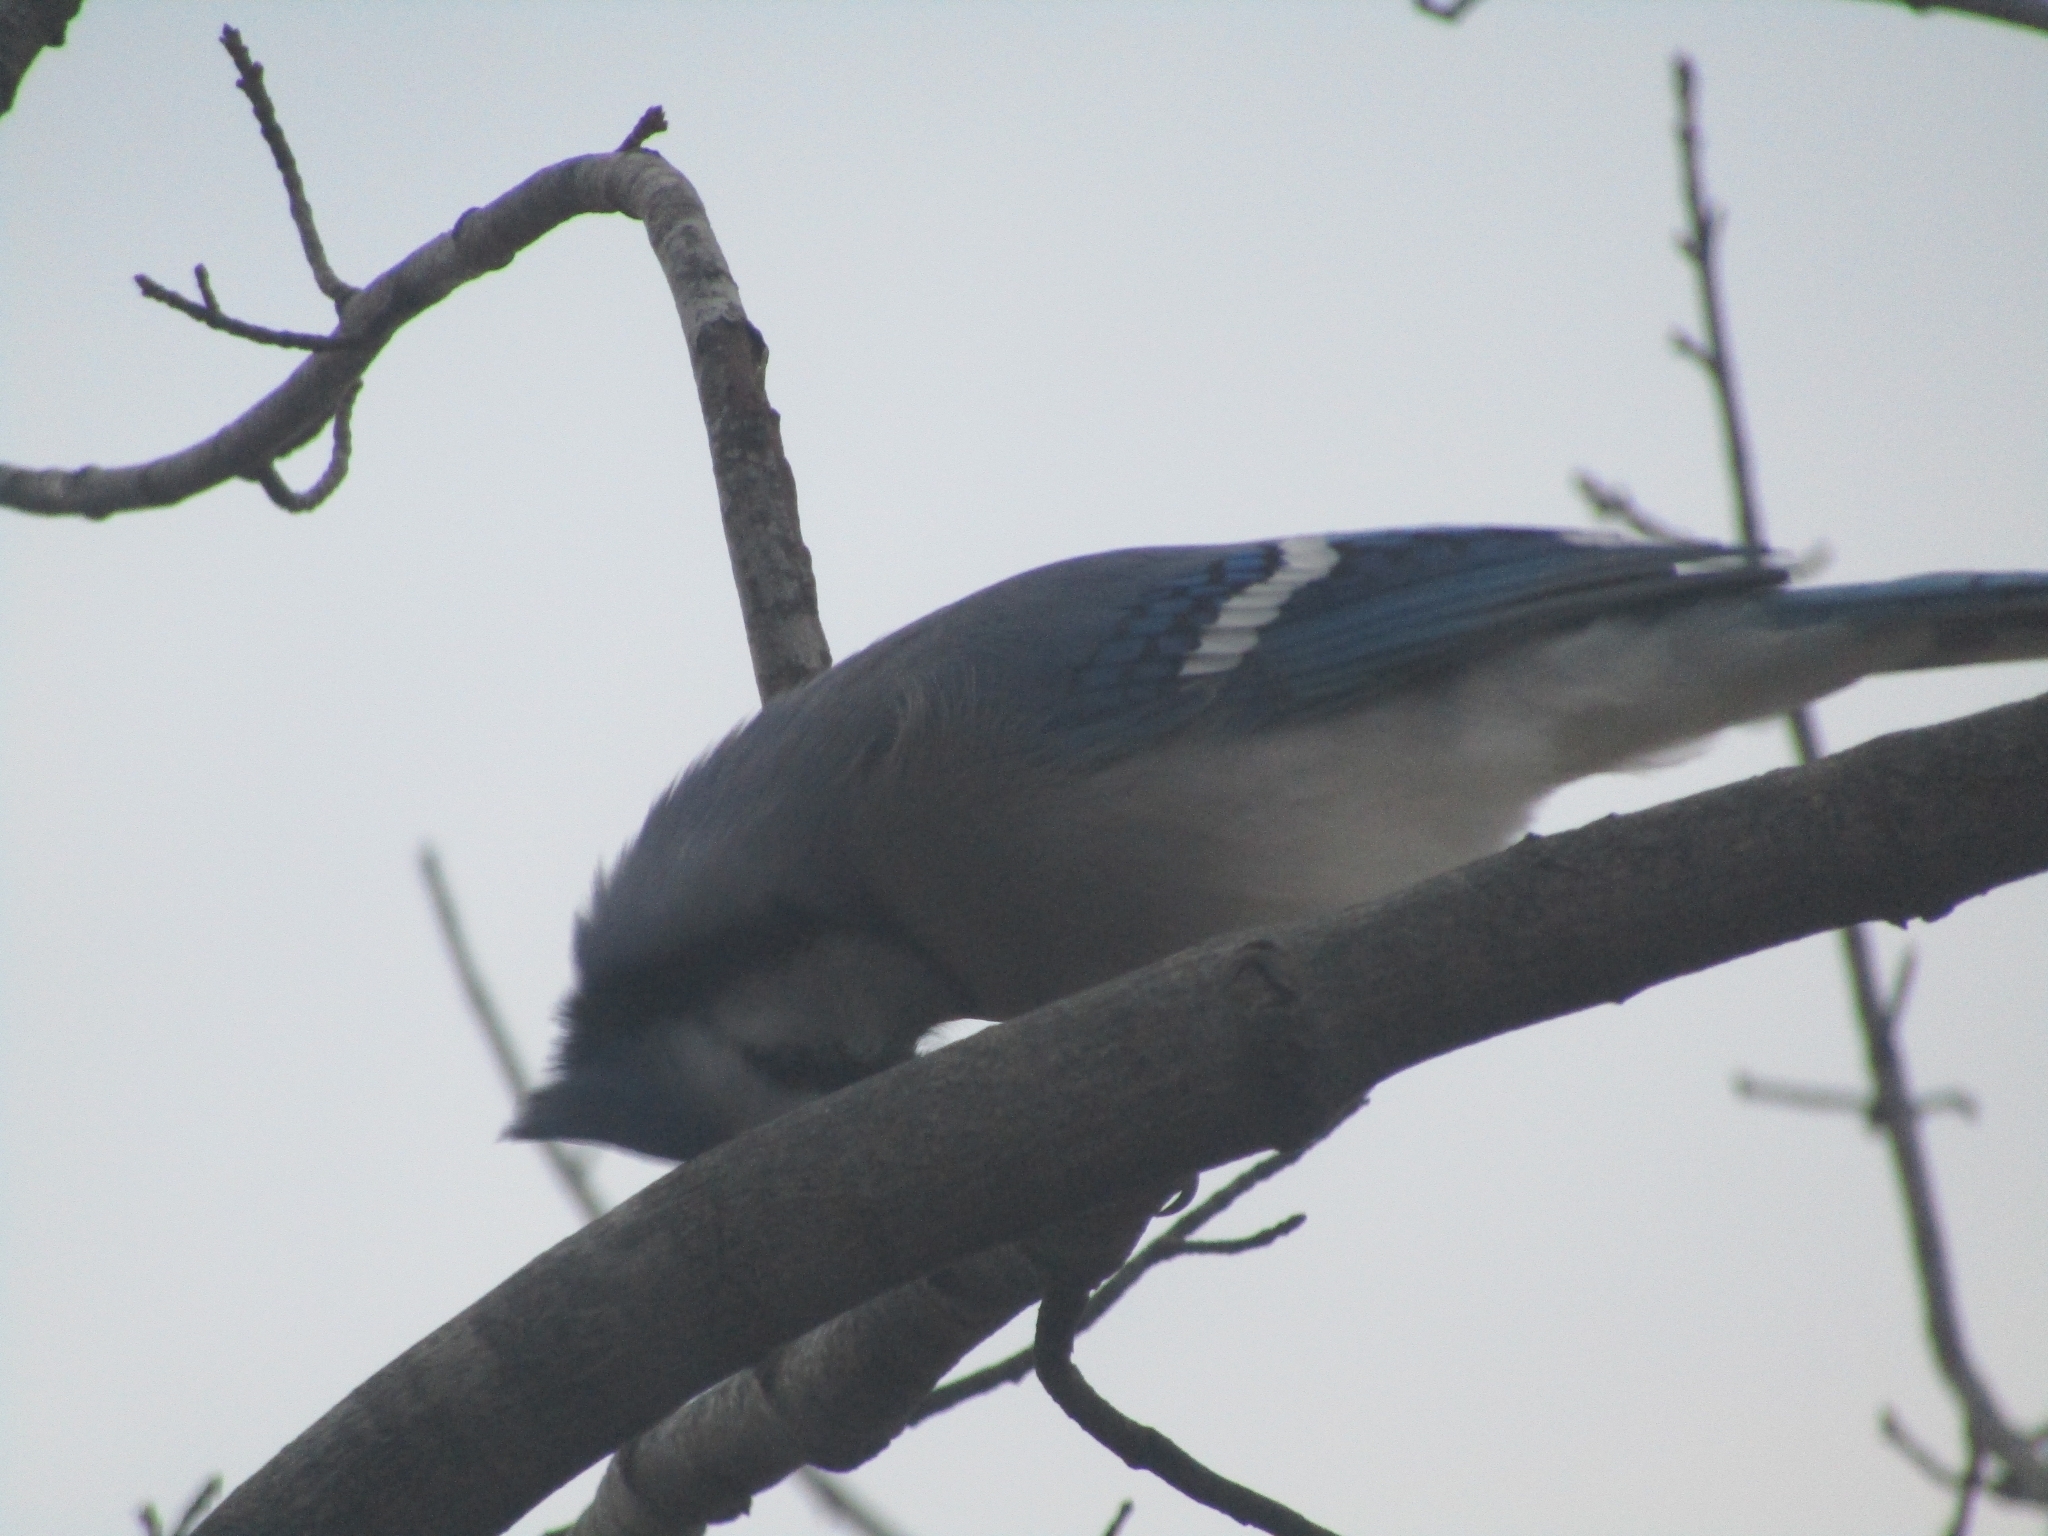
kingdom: Animalia
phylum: Chordata
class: Aves
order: Passeriformes
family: Corvidae
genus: Cyanocitta
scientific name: Cyanocitta cristata
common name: Blue jay
